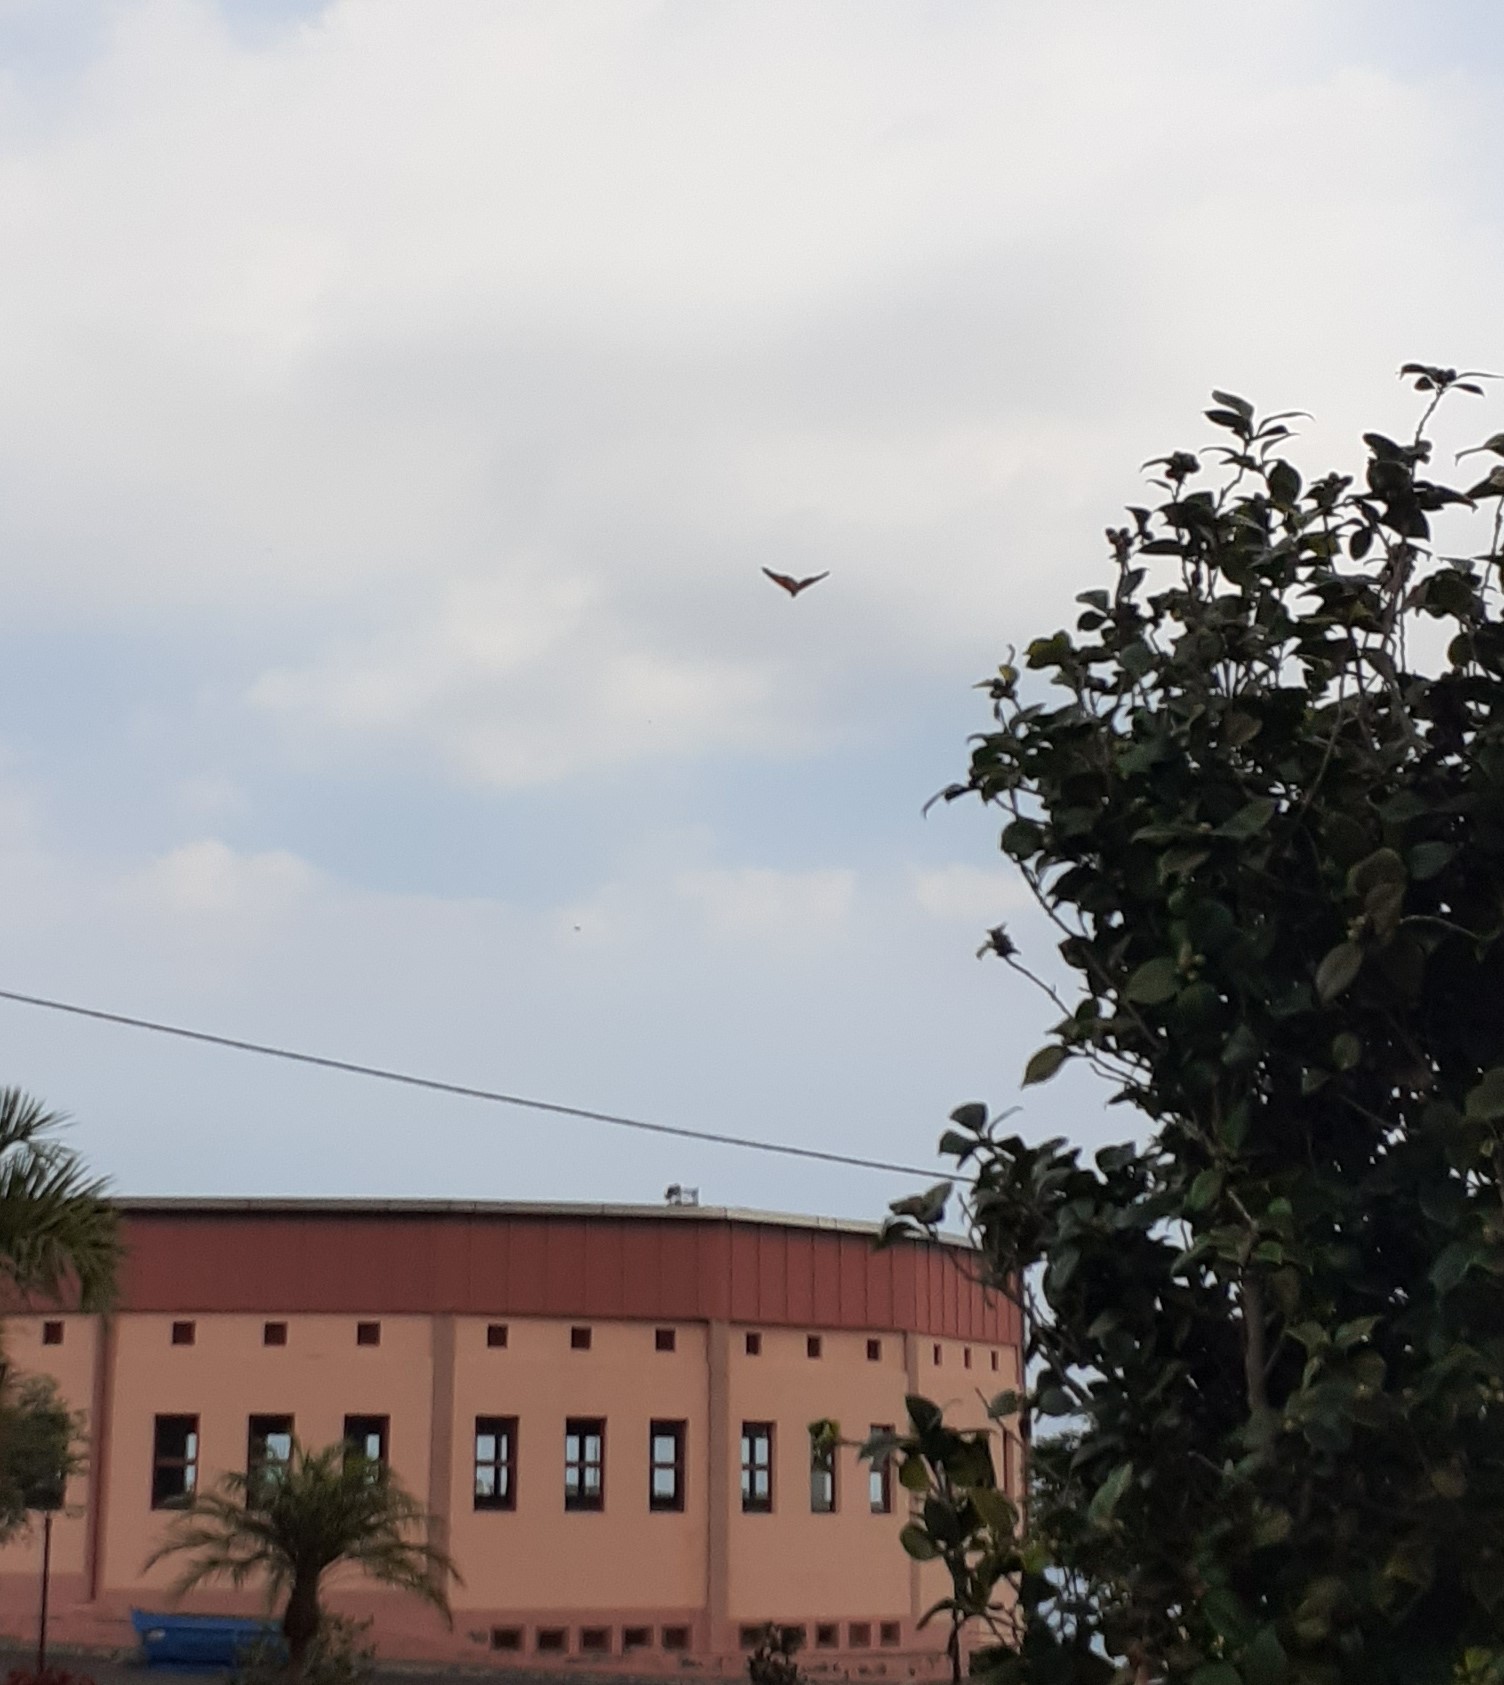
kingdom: Animalia
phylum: Arthropoda
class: Insecta
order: Lepidoptera
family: Nymphalidae
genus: Danaus
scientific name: Danaus plexippus
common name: Monarch
